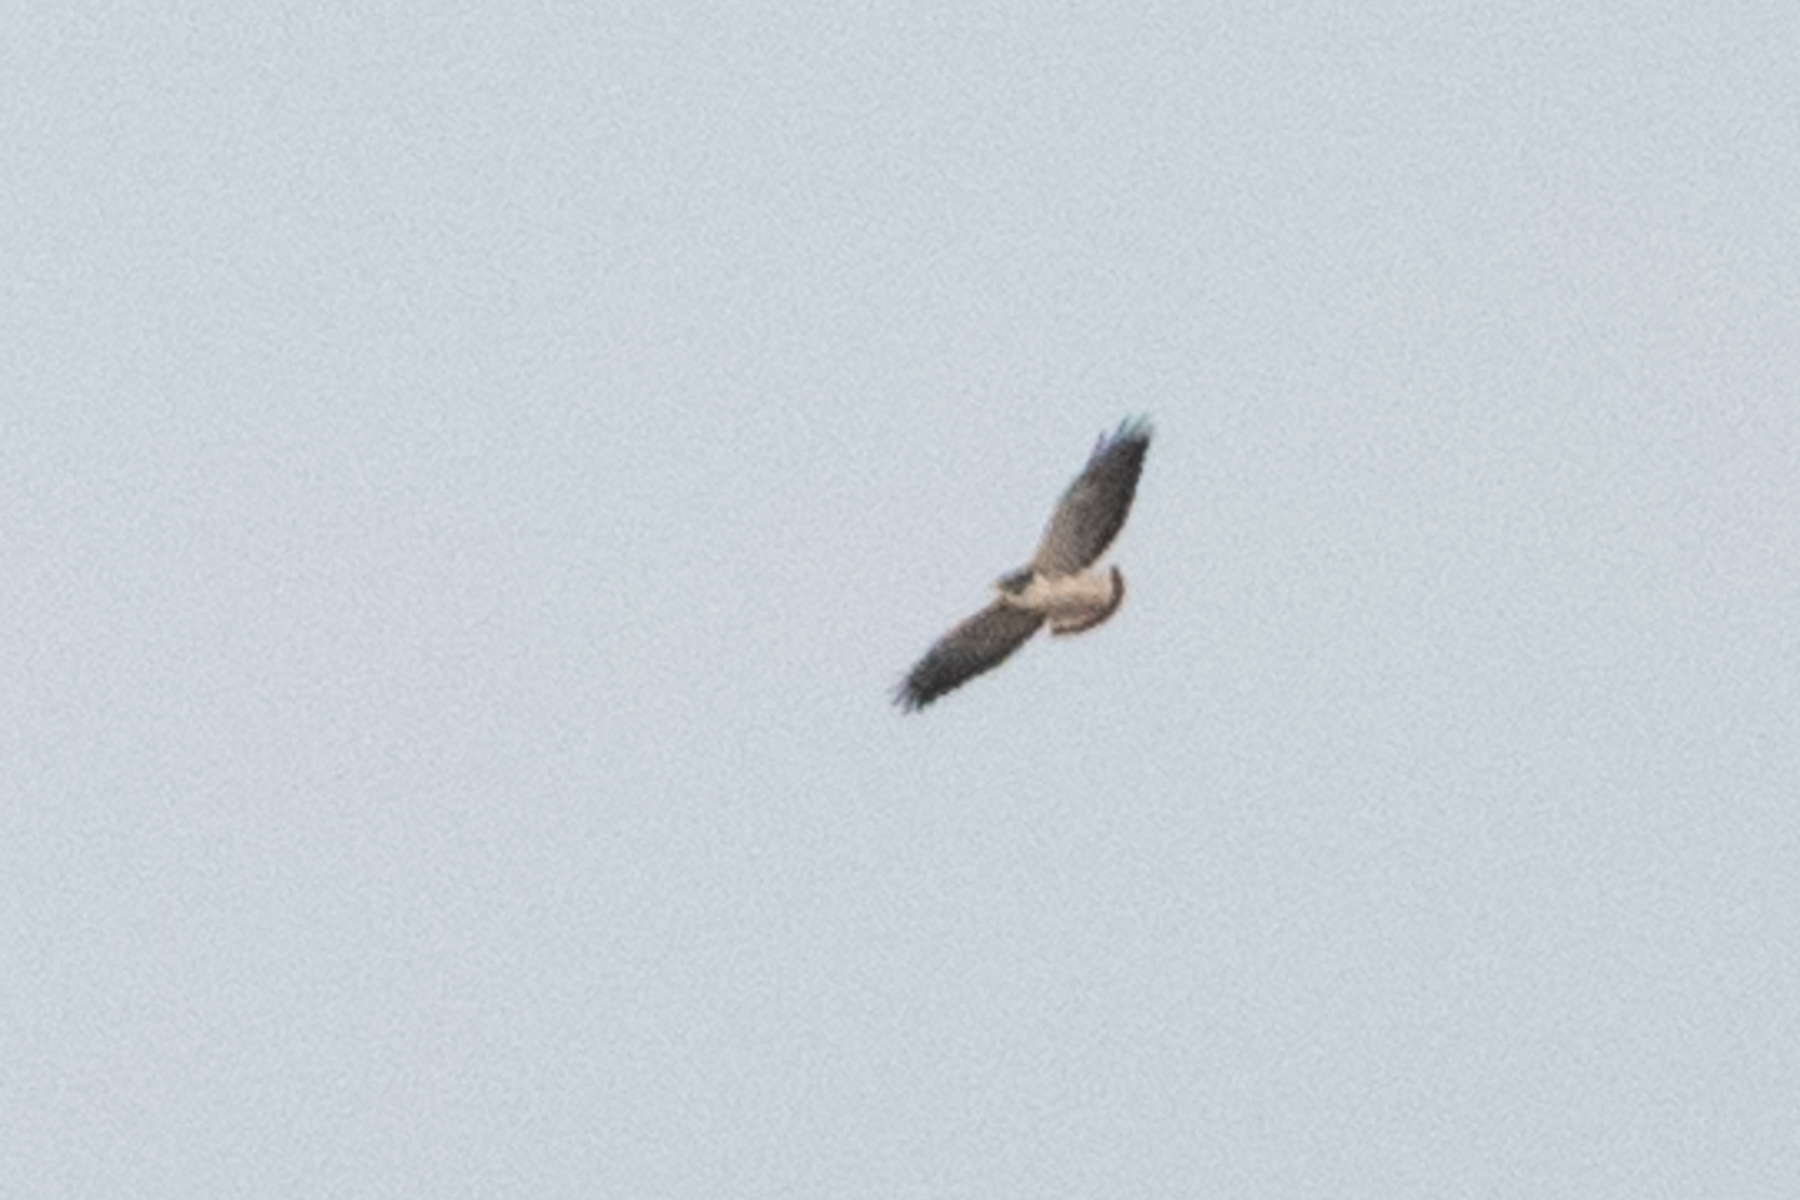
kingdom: Animalia
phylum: Chordata
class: Aves
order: Accipitriformes
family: Accipitridae
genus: Buteo
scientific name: Buteo albicaudatus
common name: White-tailed hawk
